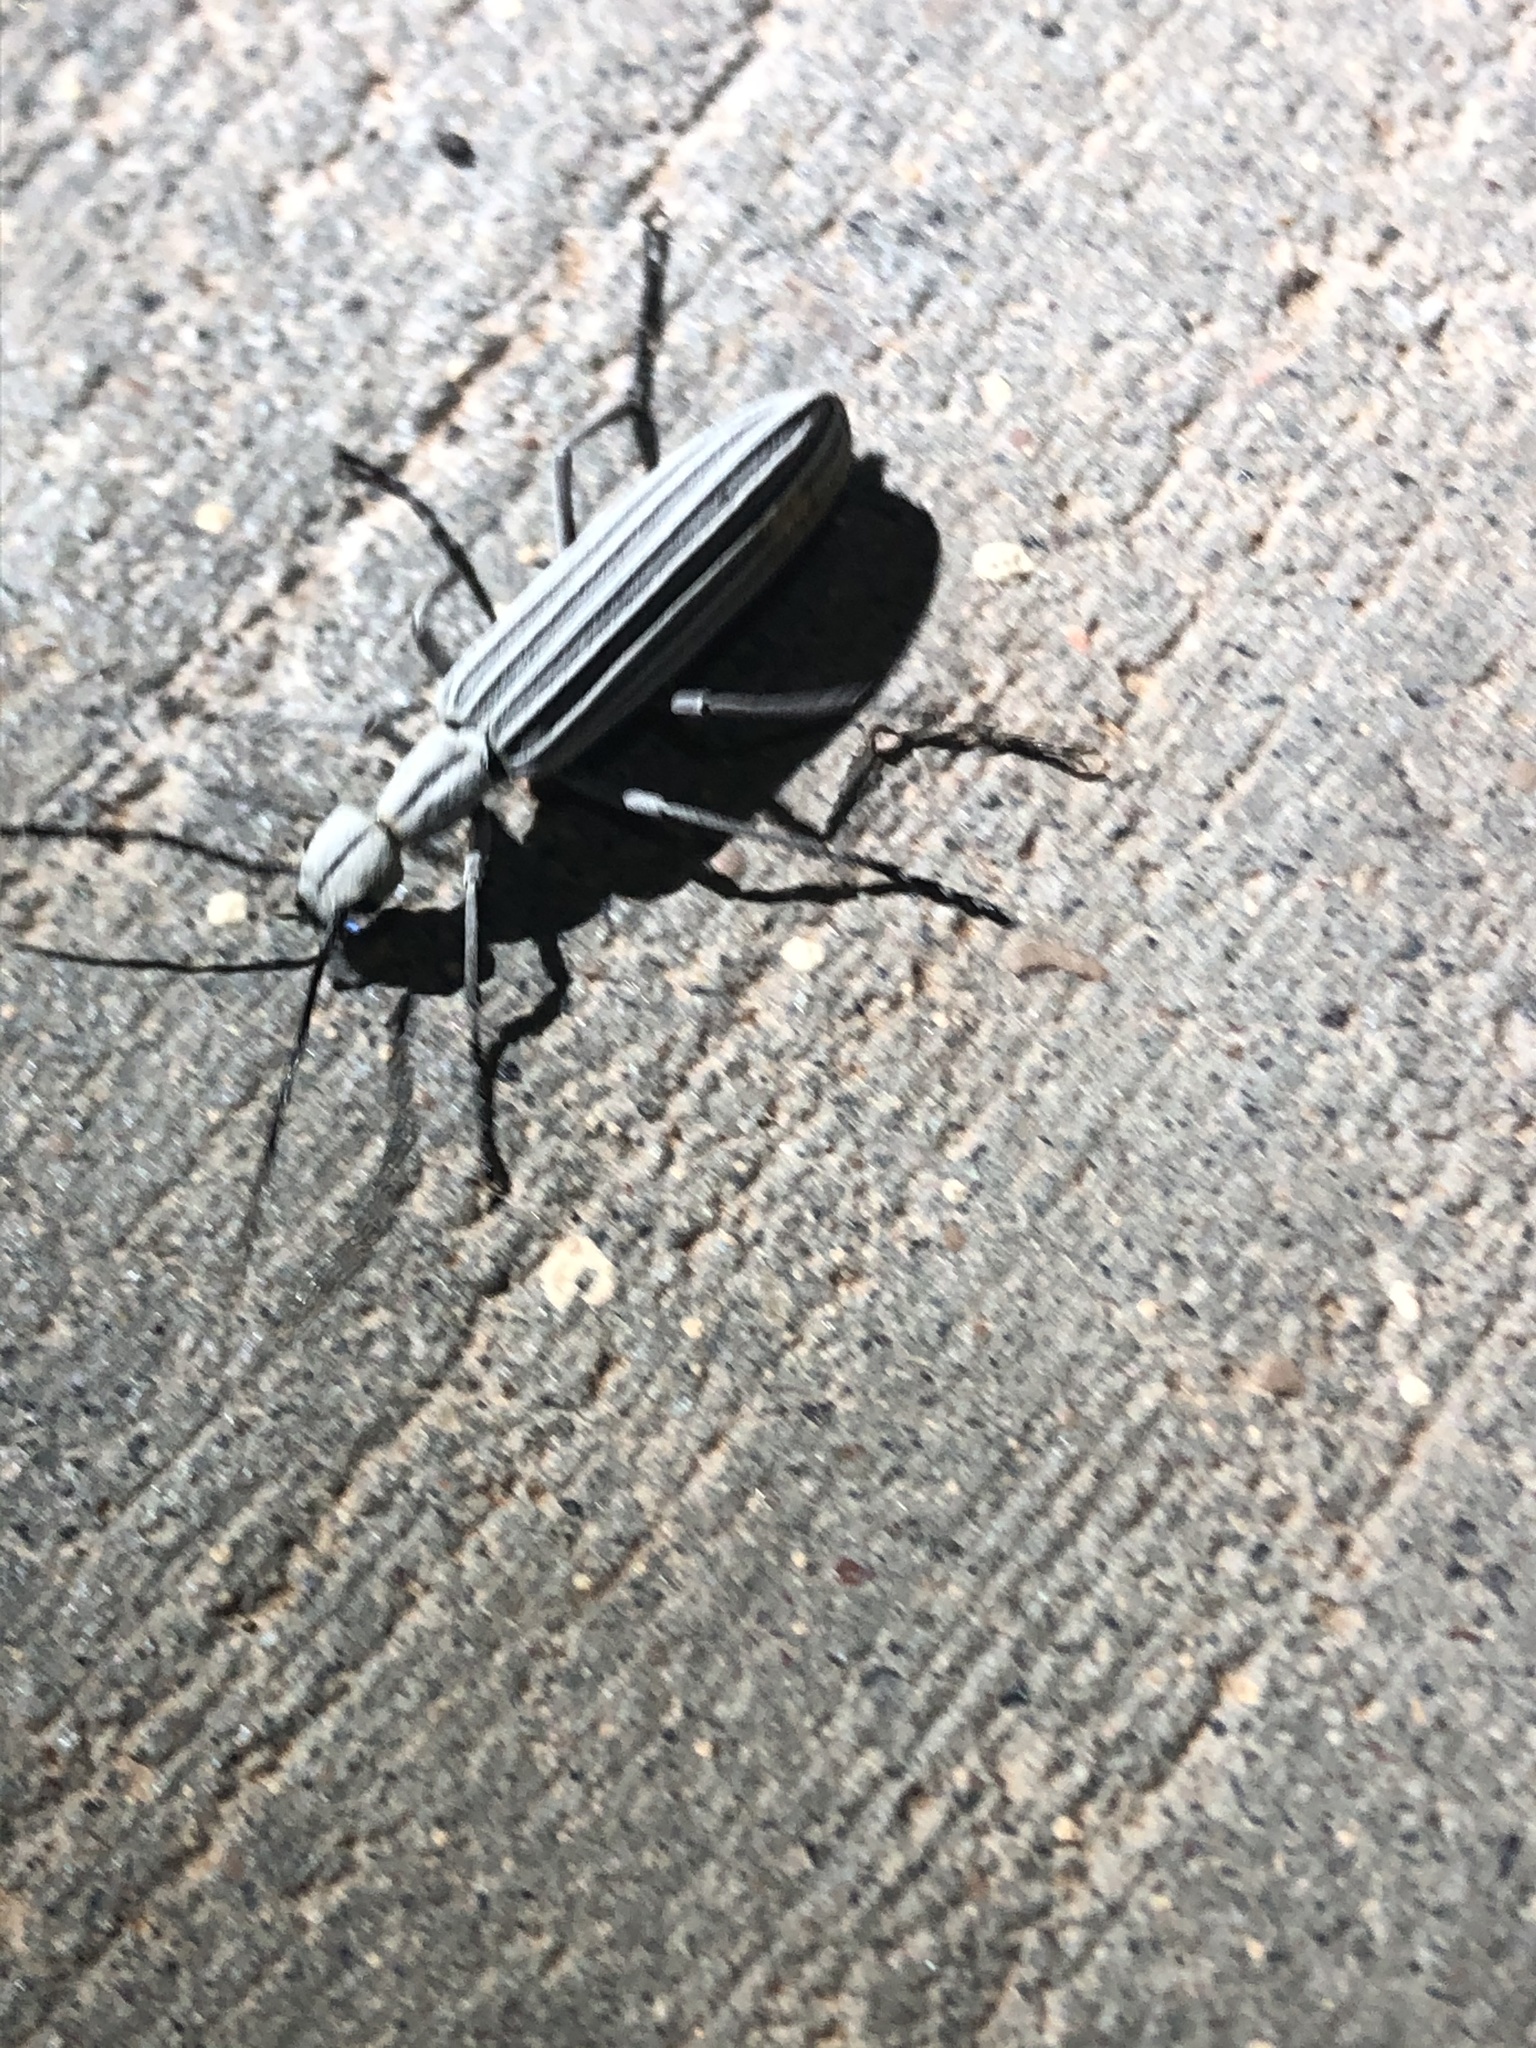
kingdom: Animalia
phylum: Arthropoda
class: Insecta
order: Coleoptera
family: Meloidae
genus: Epicauta
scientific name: Epicauta costata
